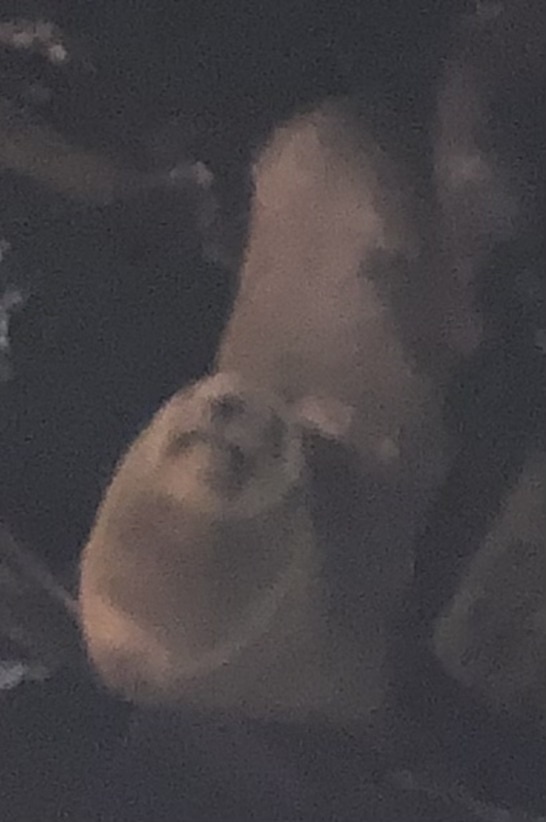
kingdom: Animalia
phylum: Chordata
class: Mammalia
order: Carnivora
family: Otariidae
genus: Zalophus
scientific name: Zalophus californianus
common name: California sea lion
